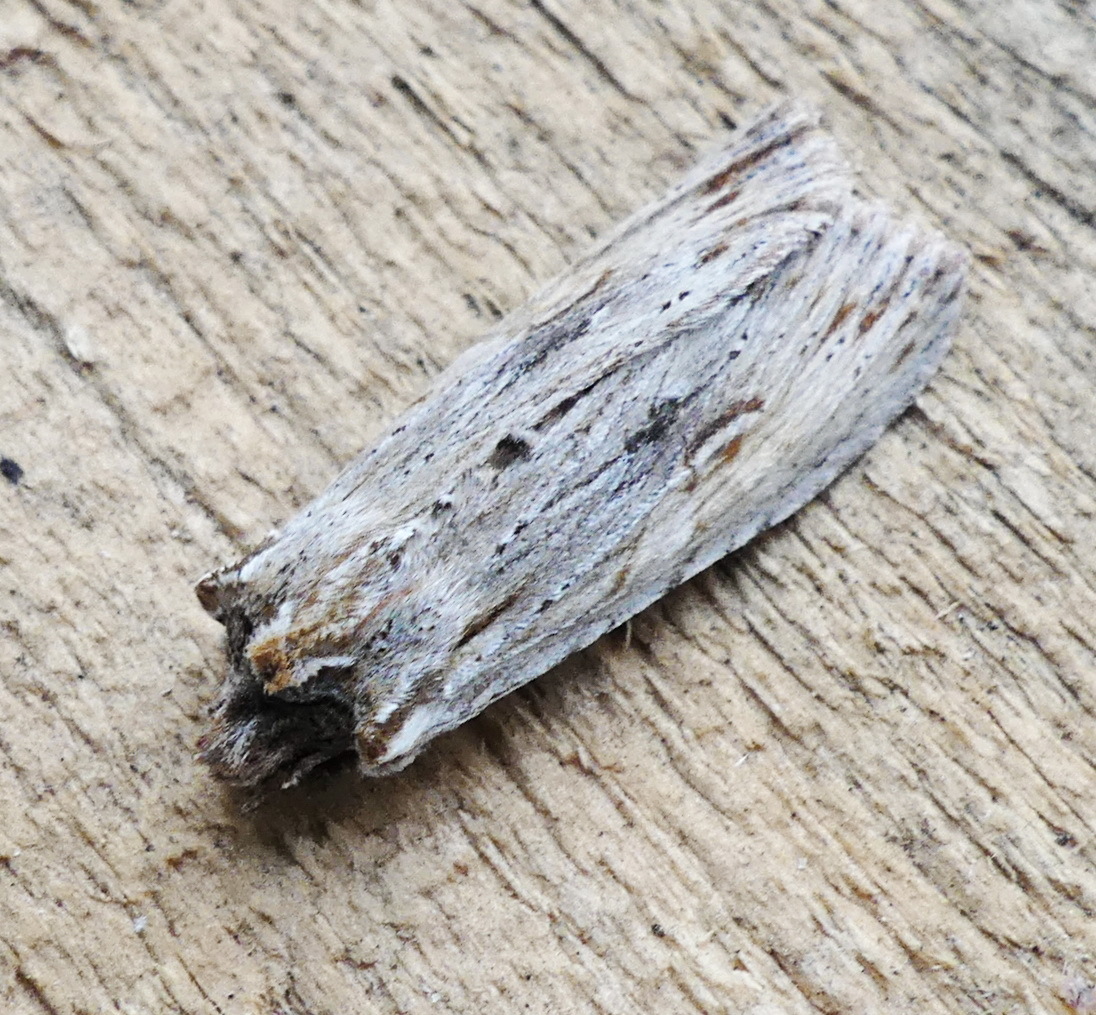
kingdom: Animalia
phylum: Arthropoda
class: Insecta
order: Lepidoptera
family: Noctuidae
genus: Lithophane
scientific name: Lithophane amanda
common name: Amanda's pinion moth
